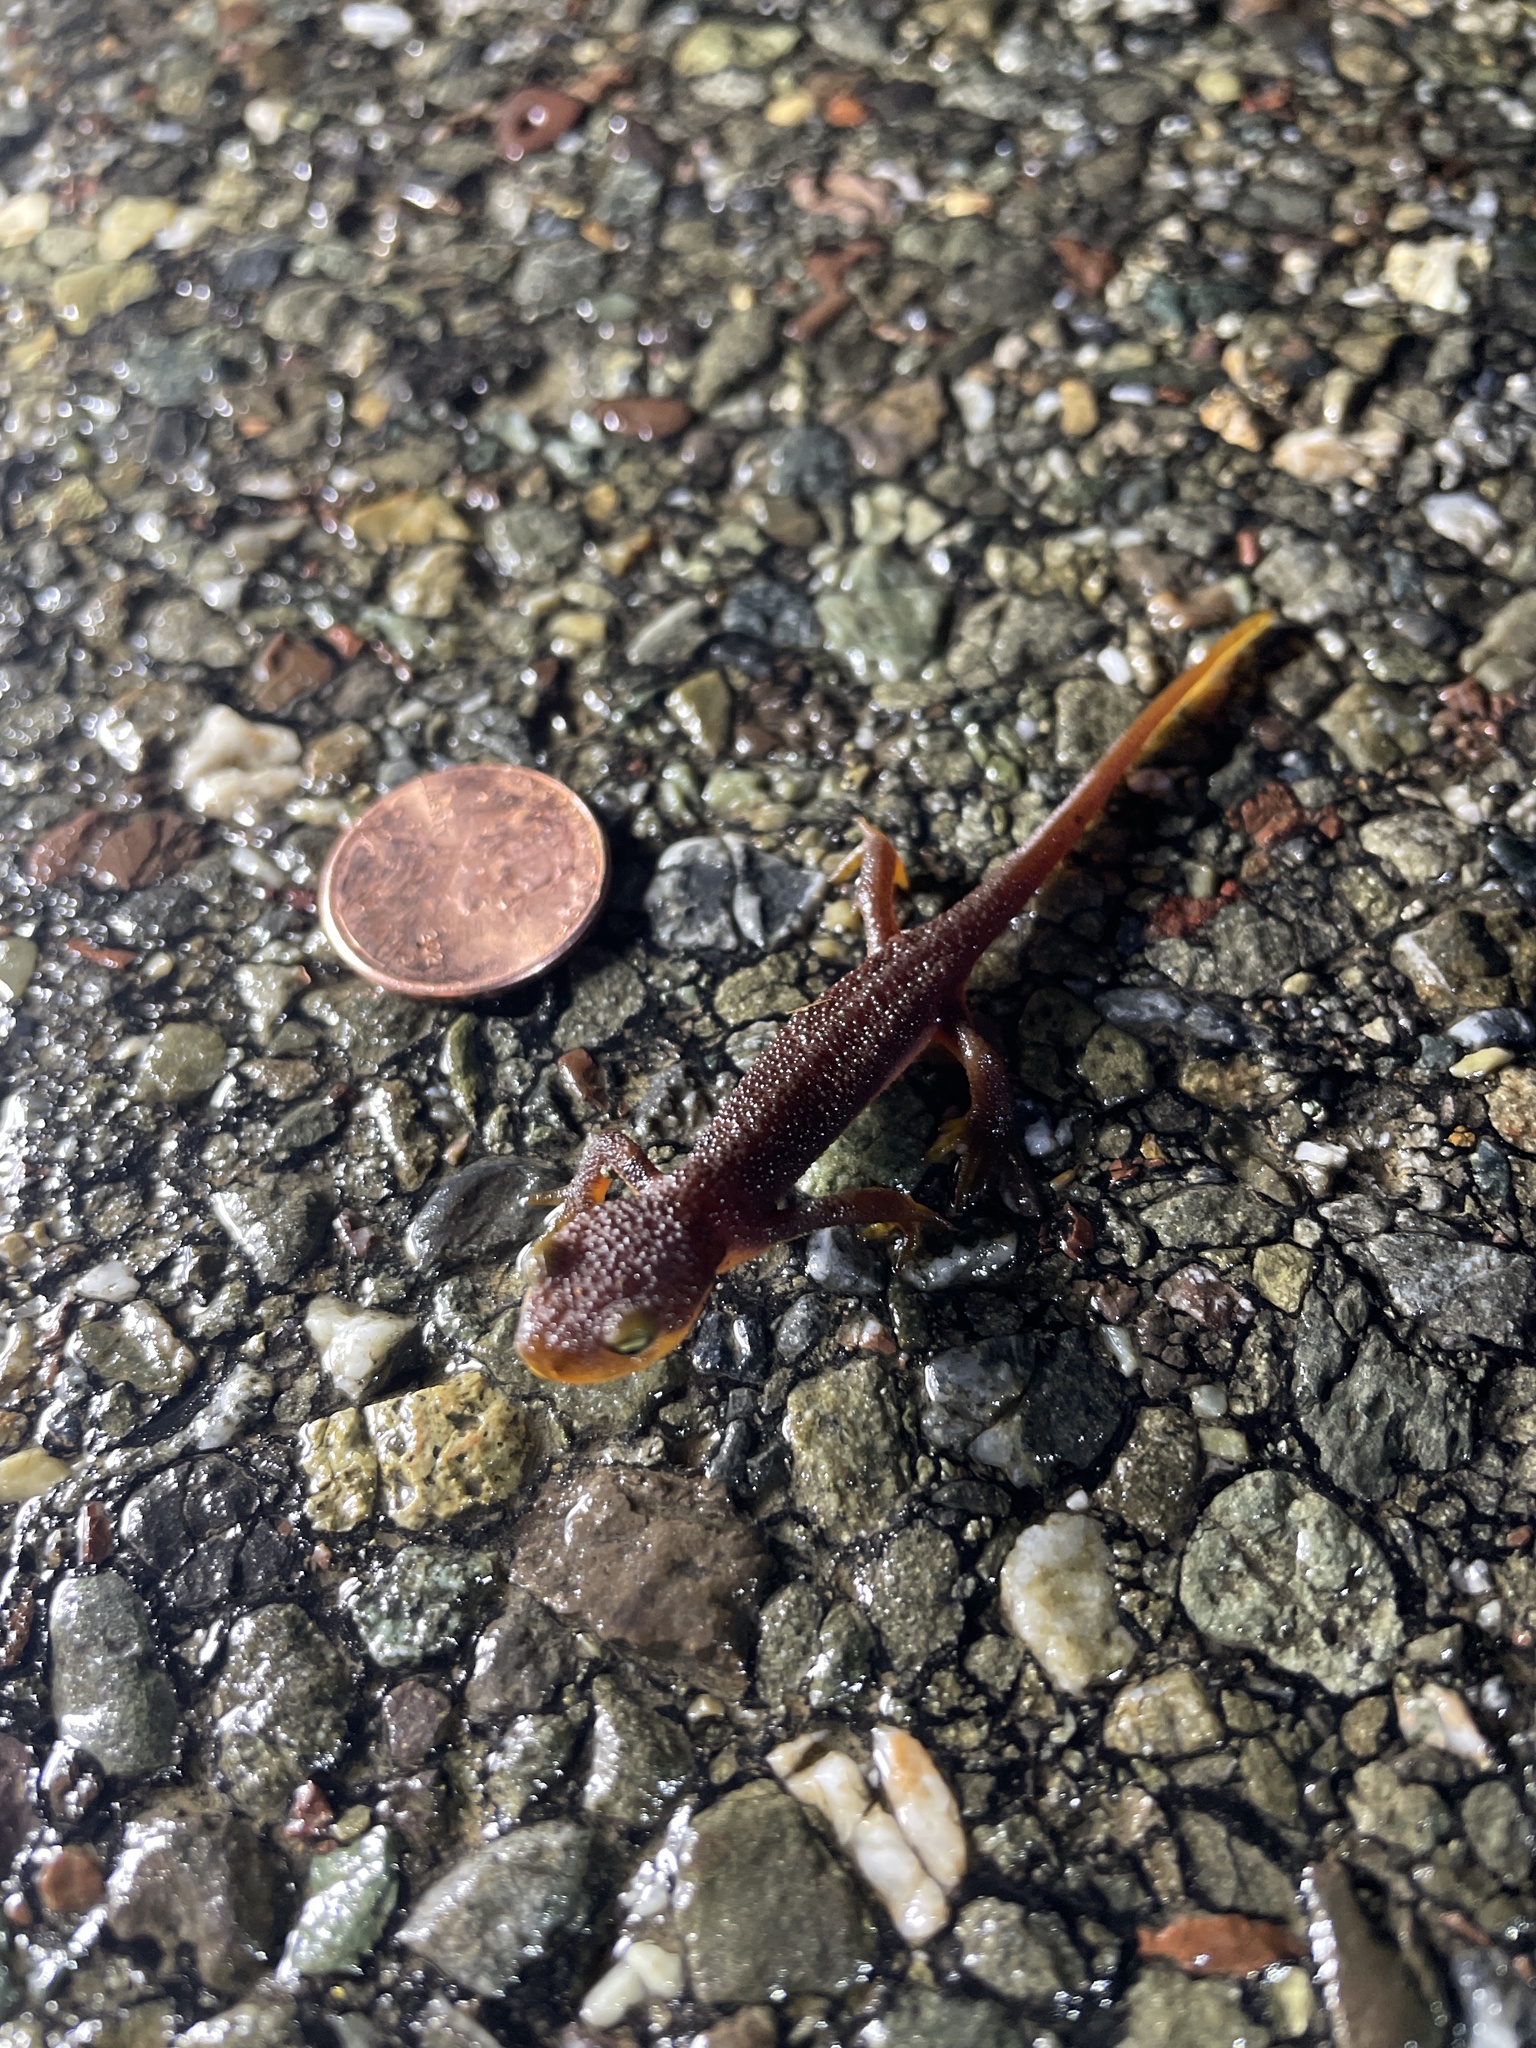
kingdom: Animalia
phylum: Chordata
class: Amphibia
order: Caudata
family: Salamandridae
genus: Taricha
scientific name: Taricha torosa
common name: California newt
